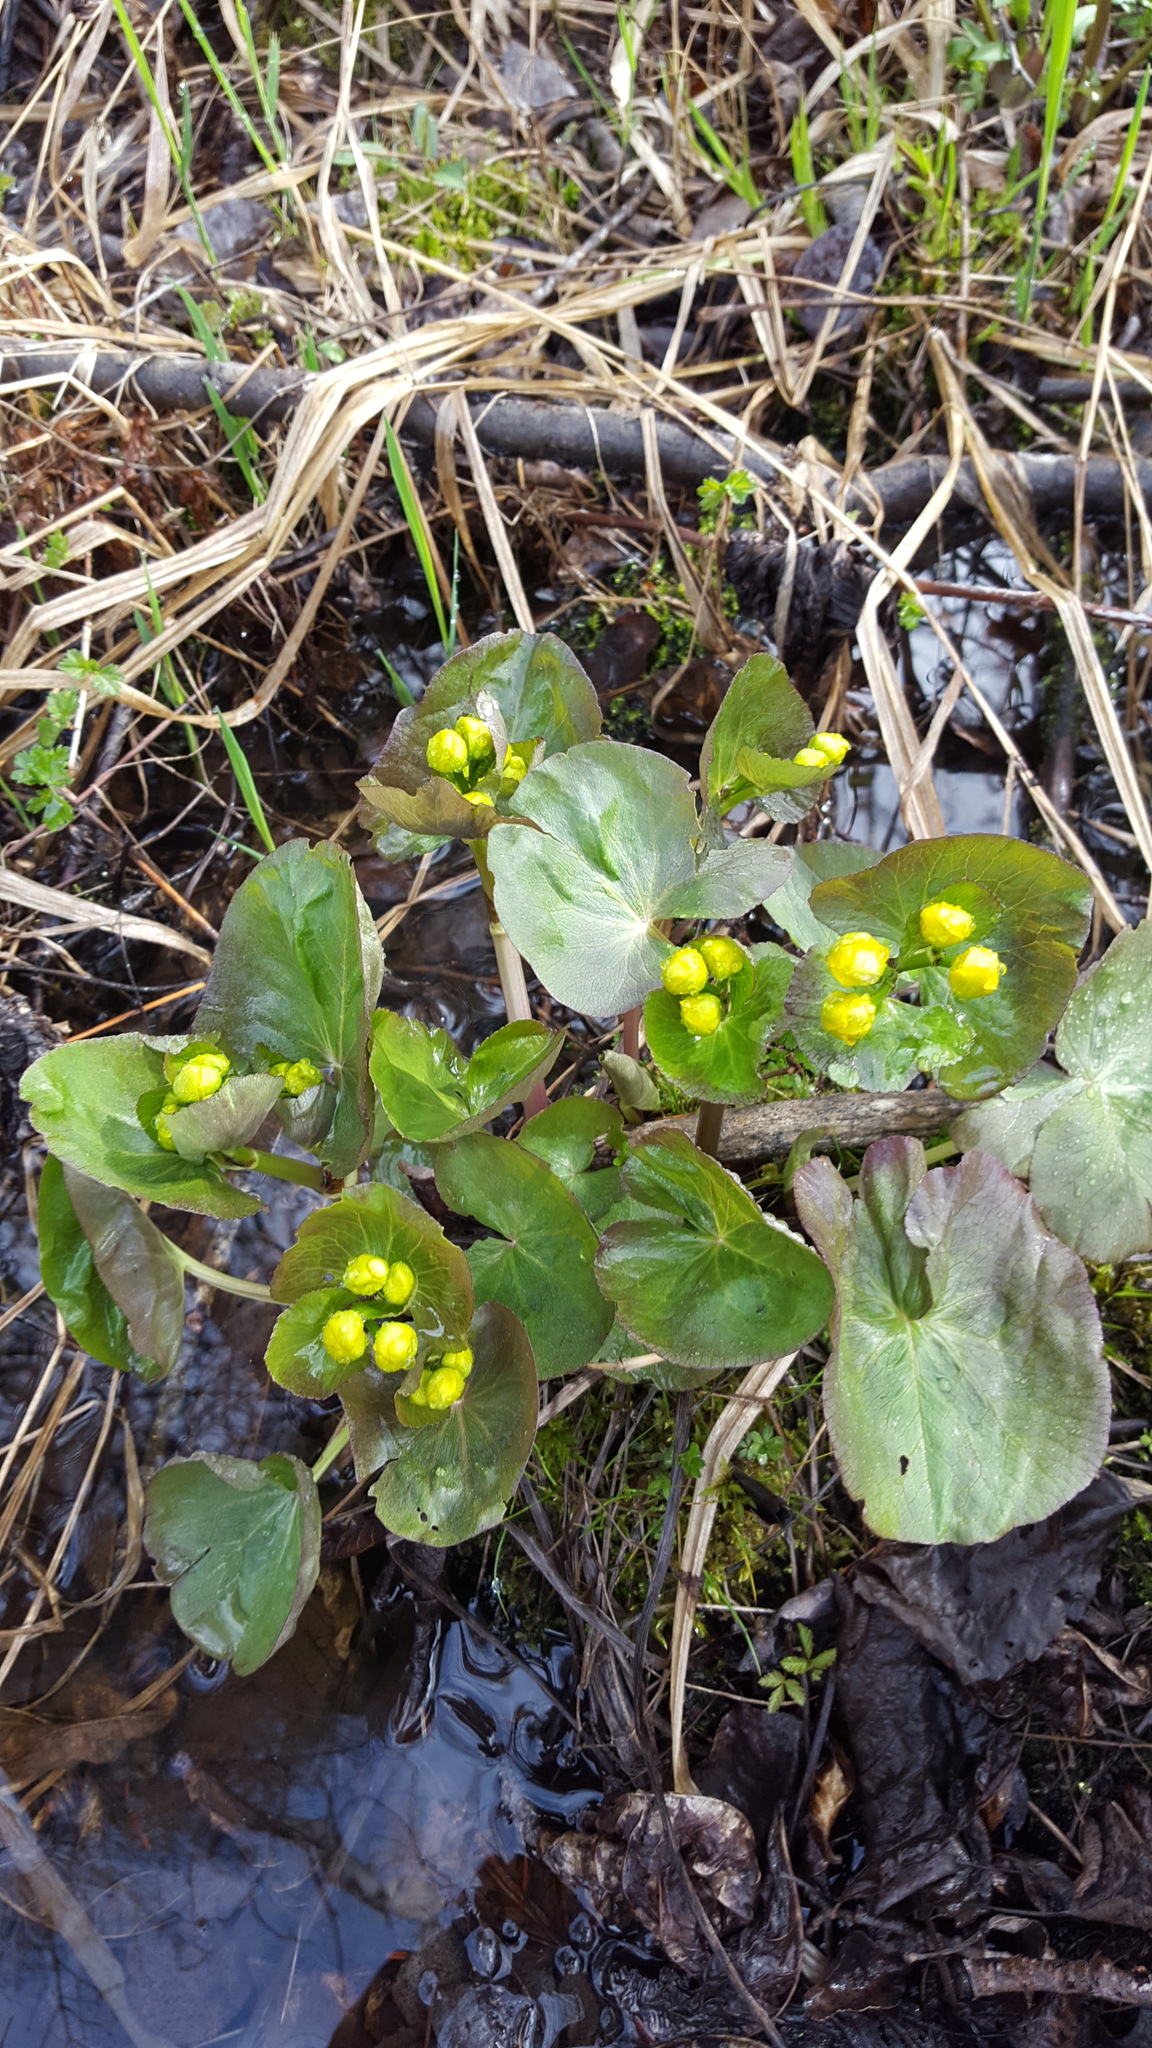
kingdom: Plantae
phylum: Tracheophyta
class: Magnoliopsida
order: Ranunculales
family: Ranunculaceae
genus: Caltha
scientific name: Caltha palustris
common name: Marsh marigold
